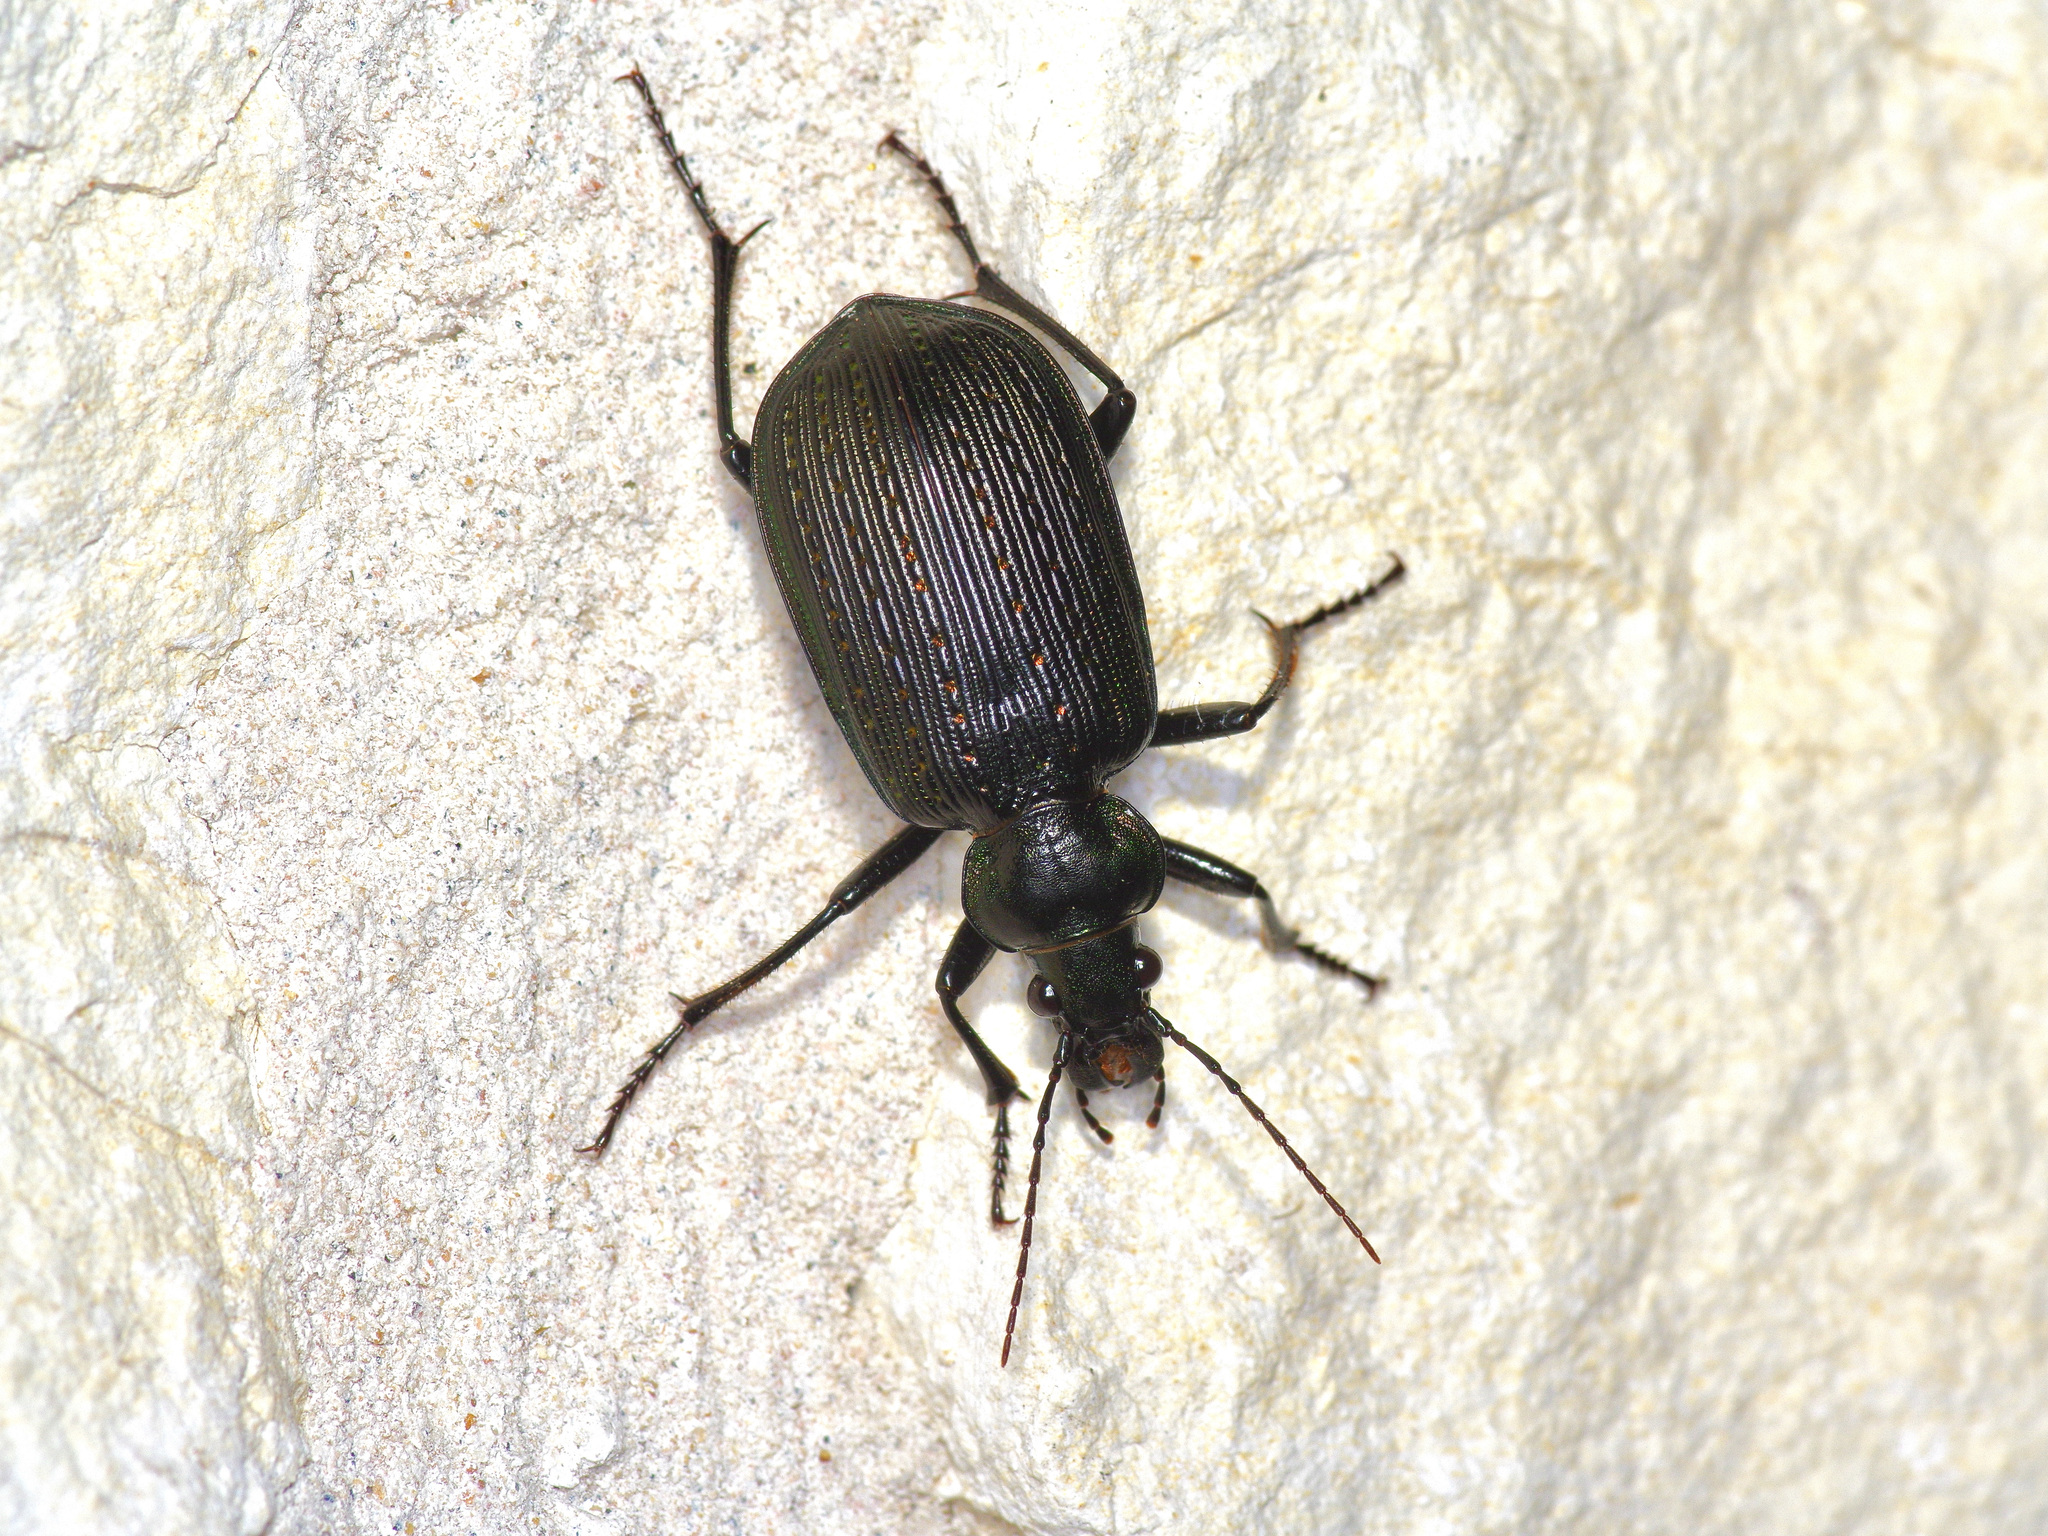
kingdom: Animalia
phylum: Arthropoda
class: Insecta
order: Coleoptera
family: Carabidae
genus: Calosoma
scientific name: Calosoma sayi
